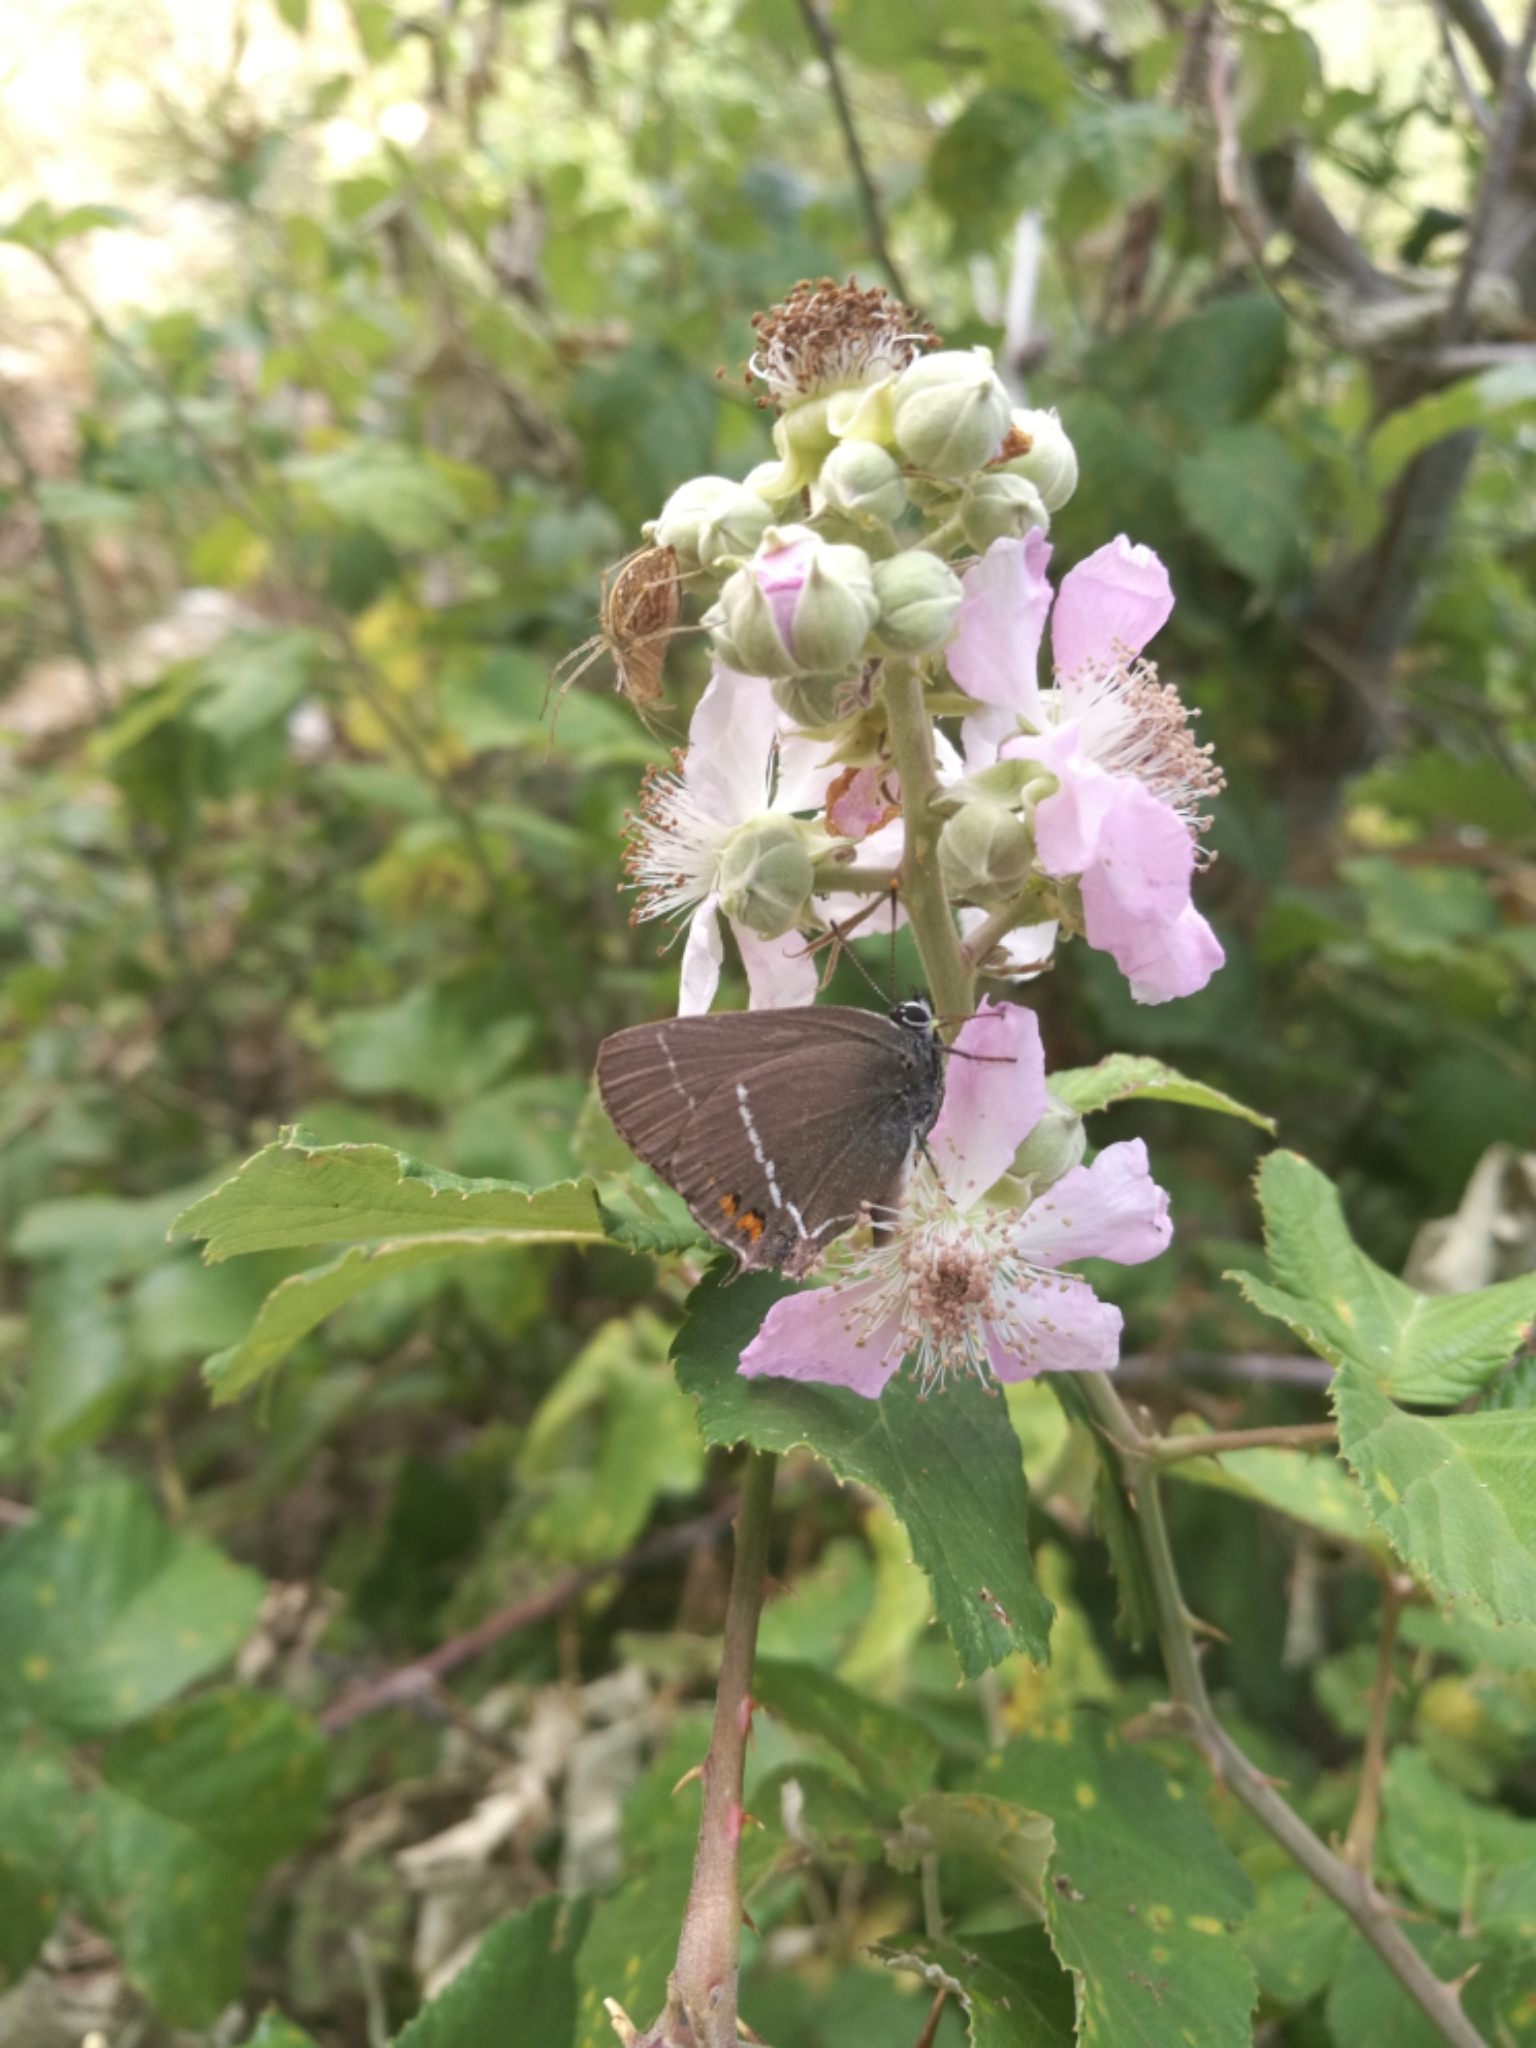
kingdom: Animalia
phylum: Arthropoda
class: Insecta
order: Lepidoptera
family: Lycaenidae
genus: Tuttiola
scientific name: Tuttiola spini
